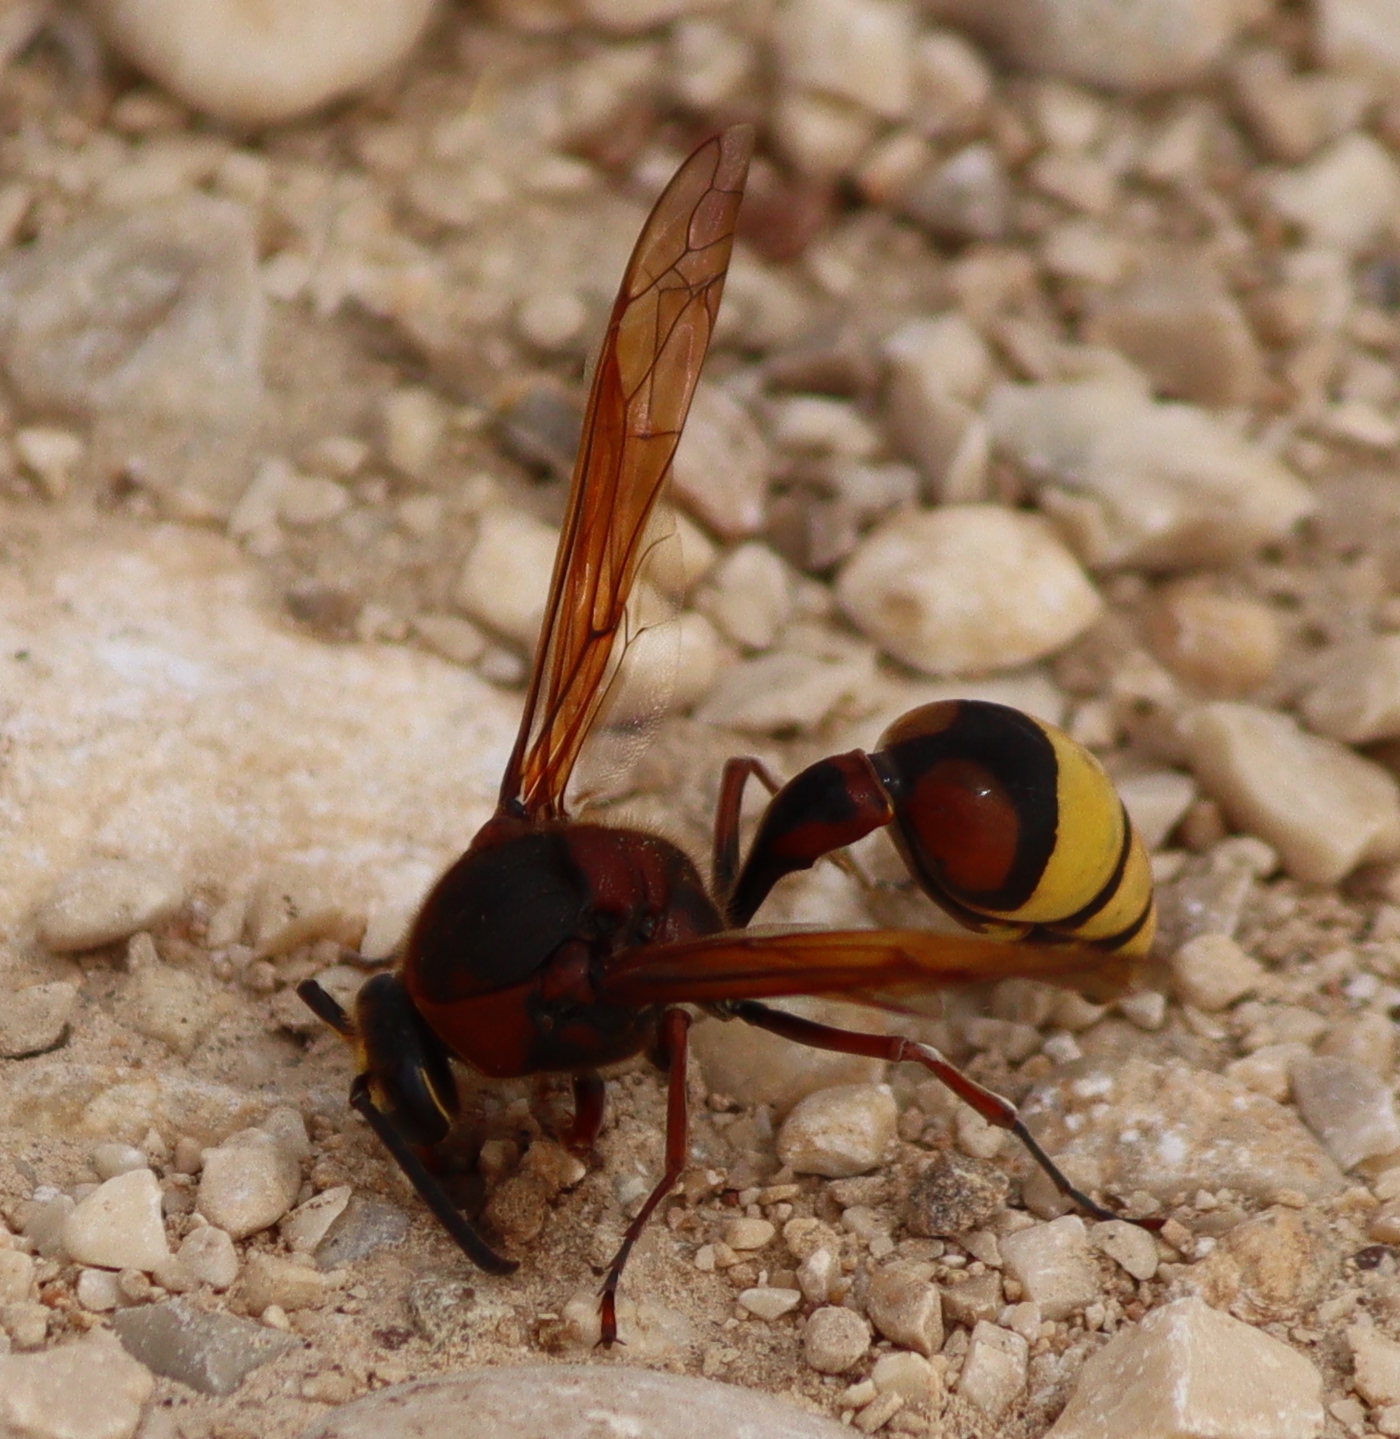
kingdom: Animalia
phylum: Arthropoda
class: Insecta
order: Hymenoptera
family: Eumenidae
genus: Delta
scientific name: Delta unguiculatum
